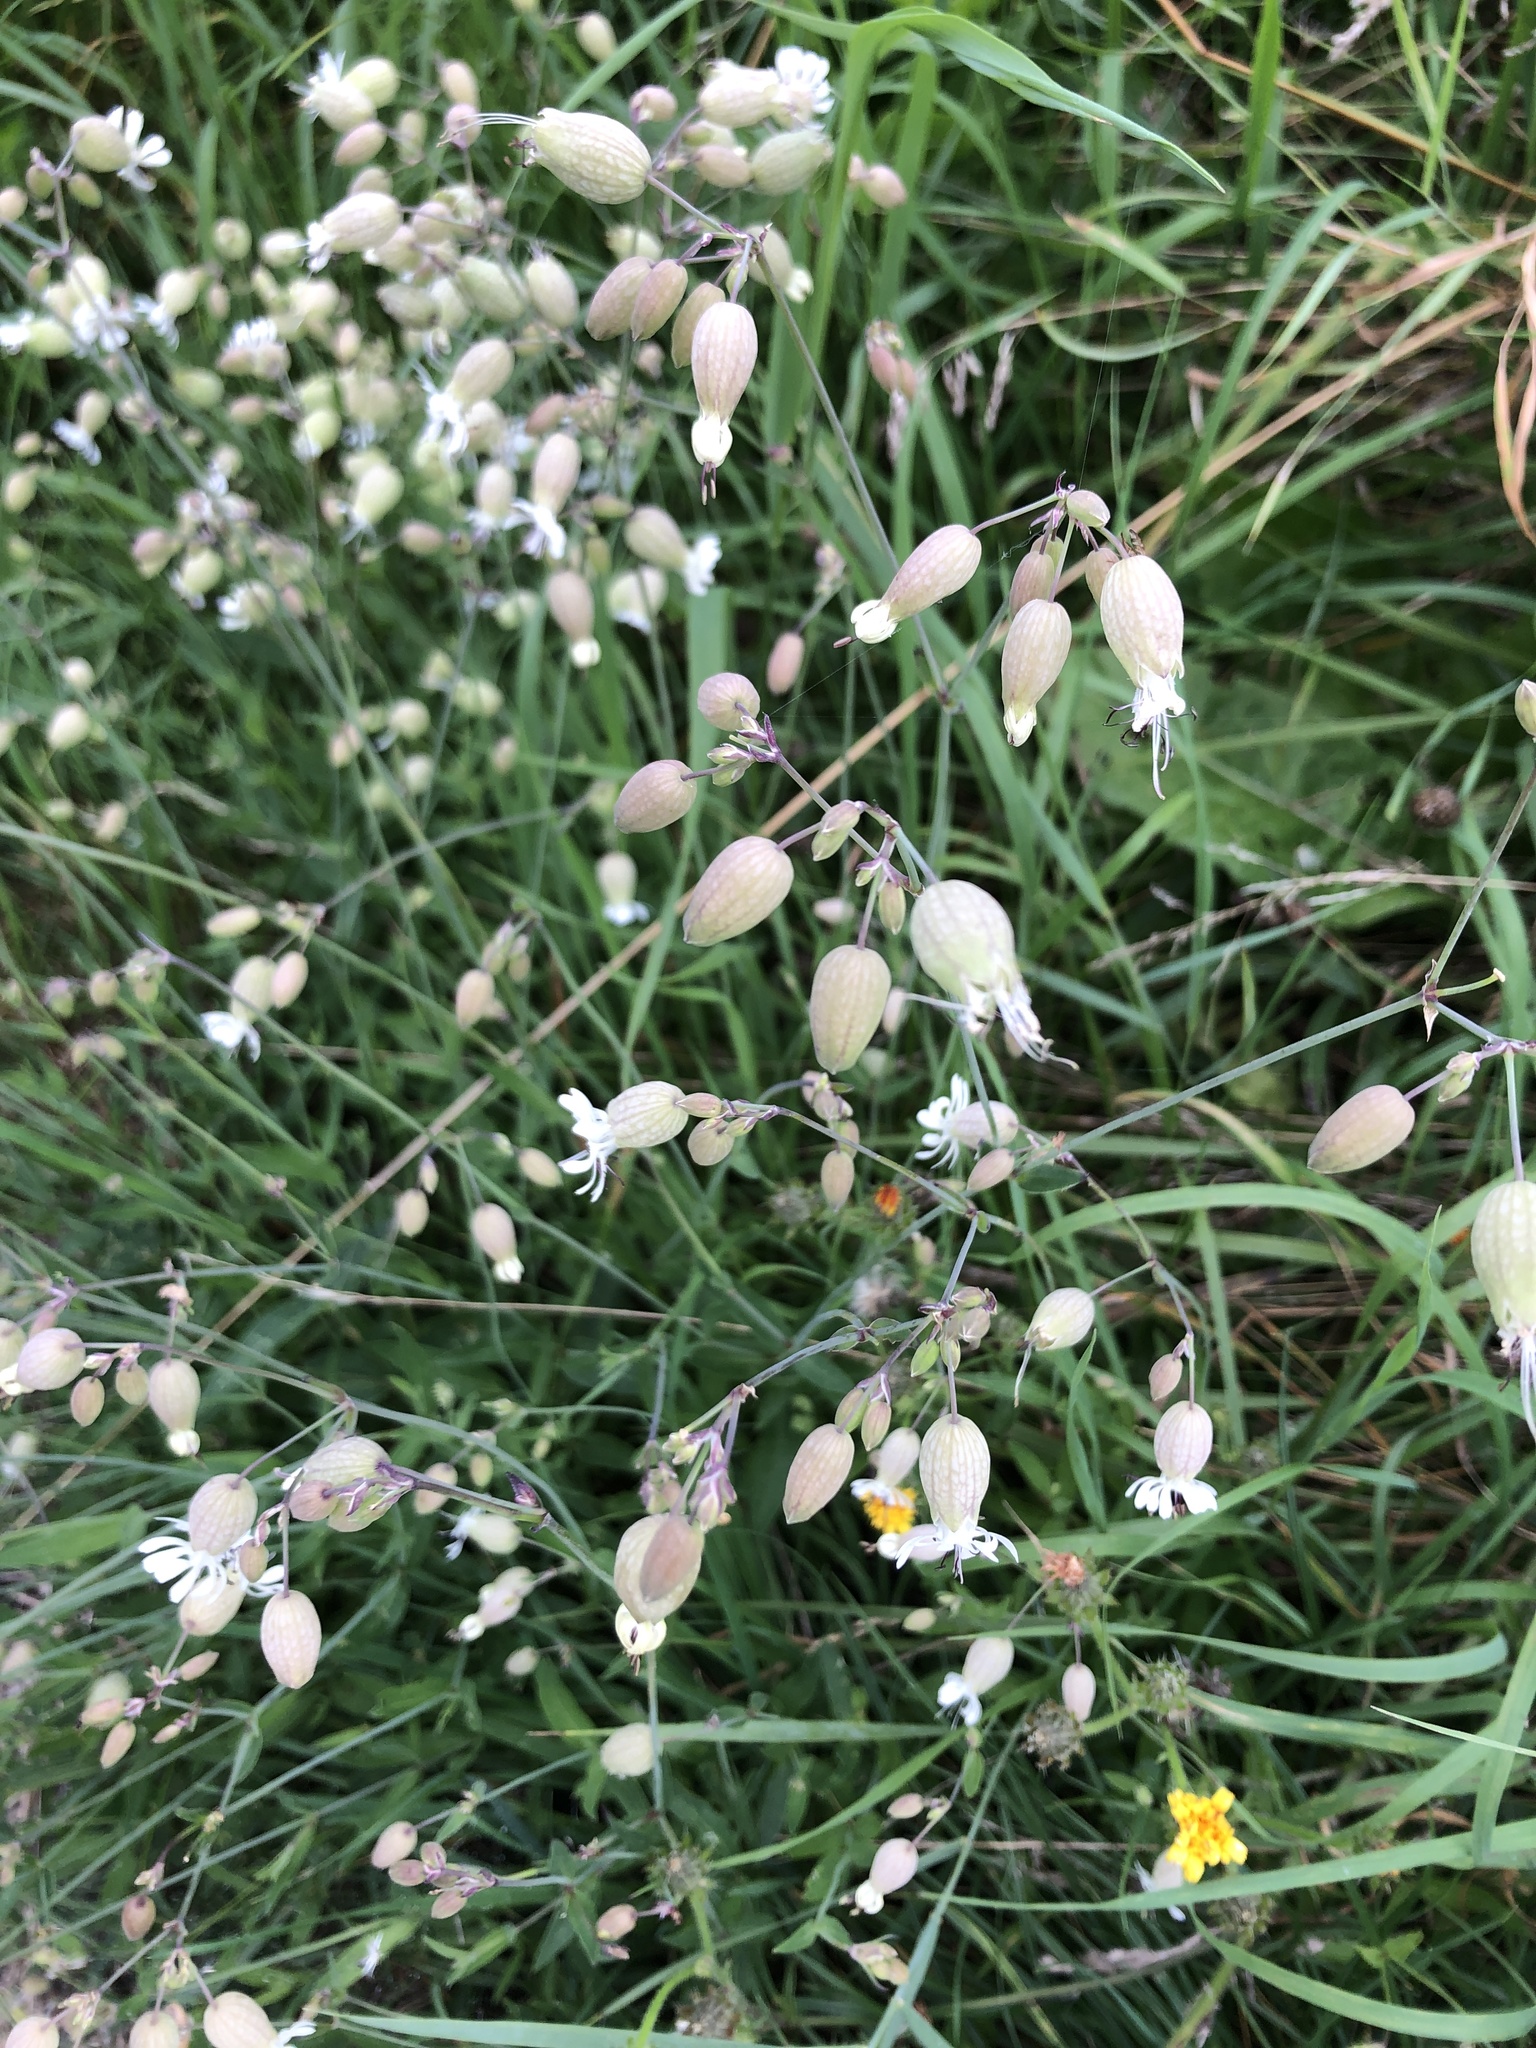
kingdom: Plantae
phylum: Tracheophyta
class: Magnoliopsida
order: Caryophyllales
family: Caryophyllaceae
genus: Silene
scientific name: Silene vulgaris
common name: Bladder campion
